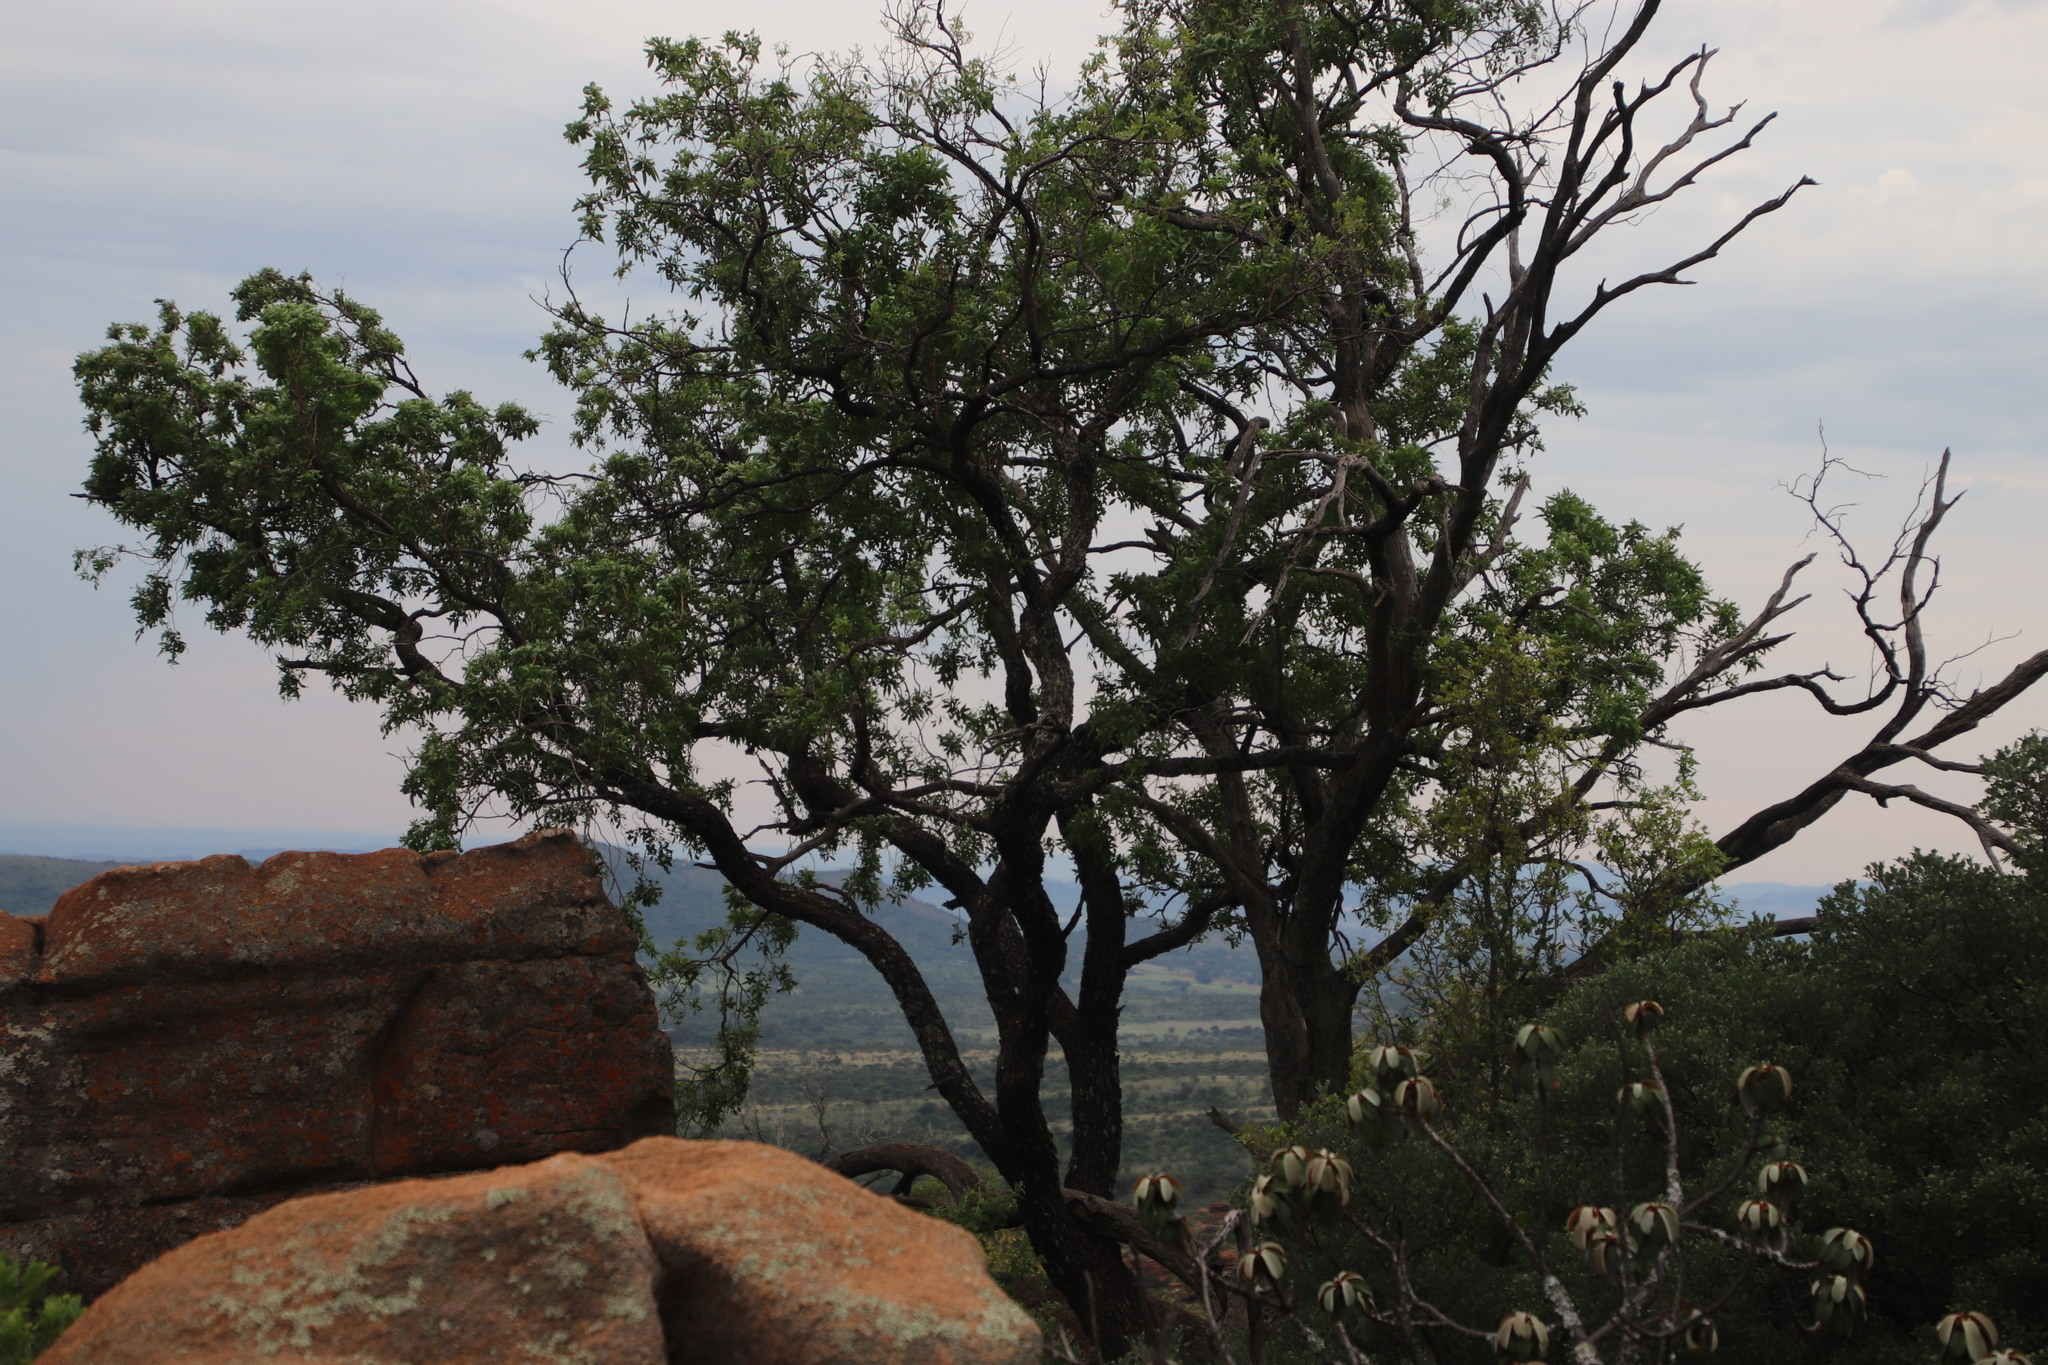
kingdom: Plantae
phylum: Tracheophyta
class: Magnoliopsida
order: Sapindales
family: Anacardiaceae
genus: Searsia
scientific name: Searsia leptodictya
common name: Mountain karee
